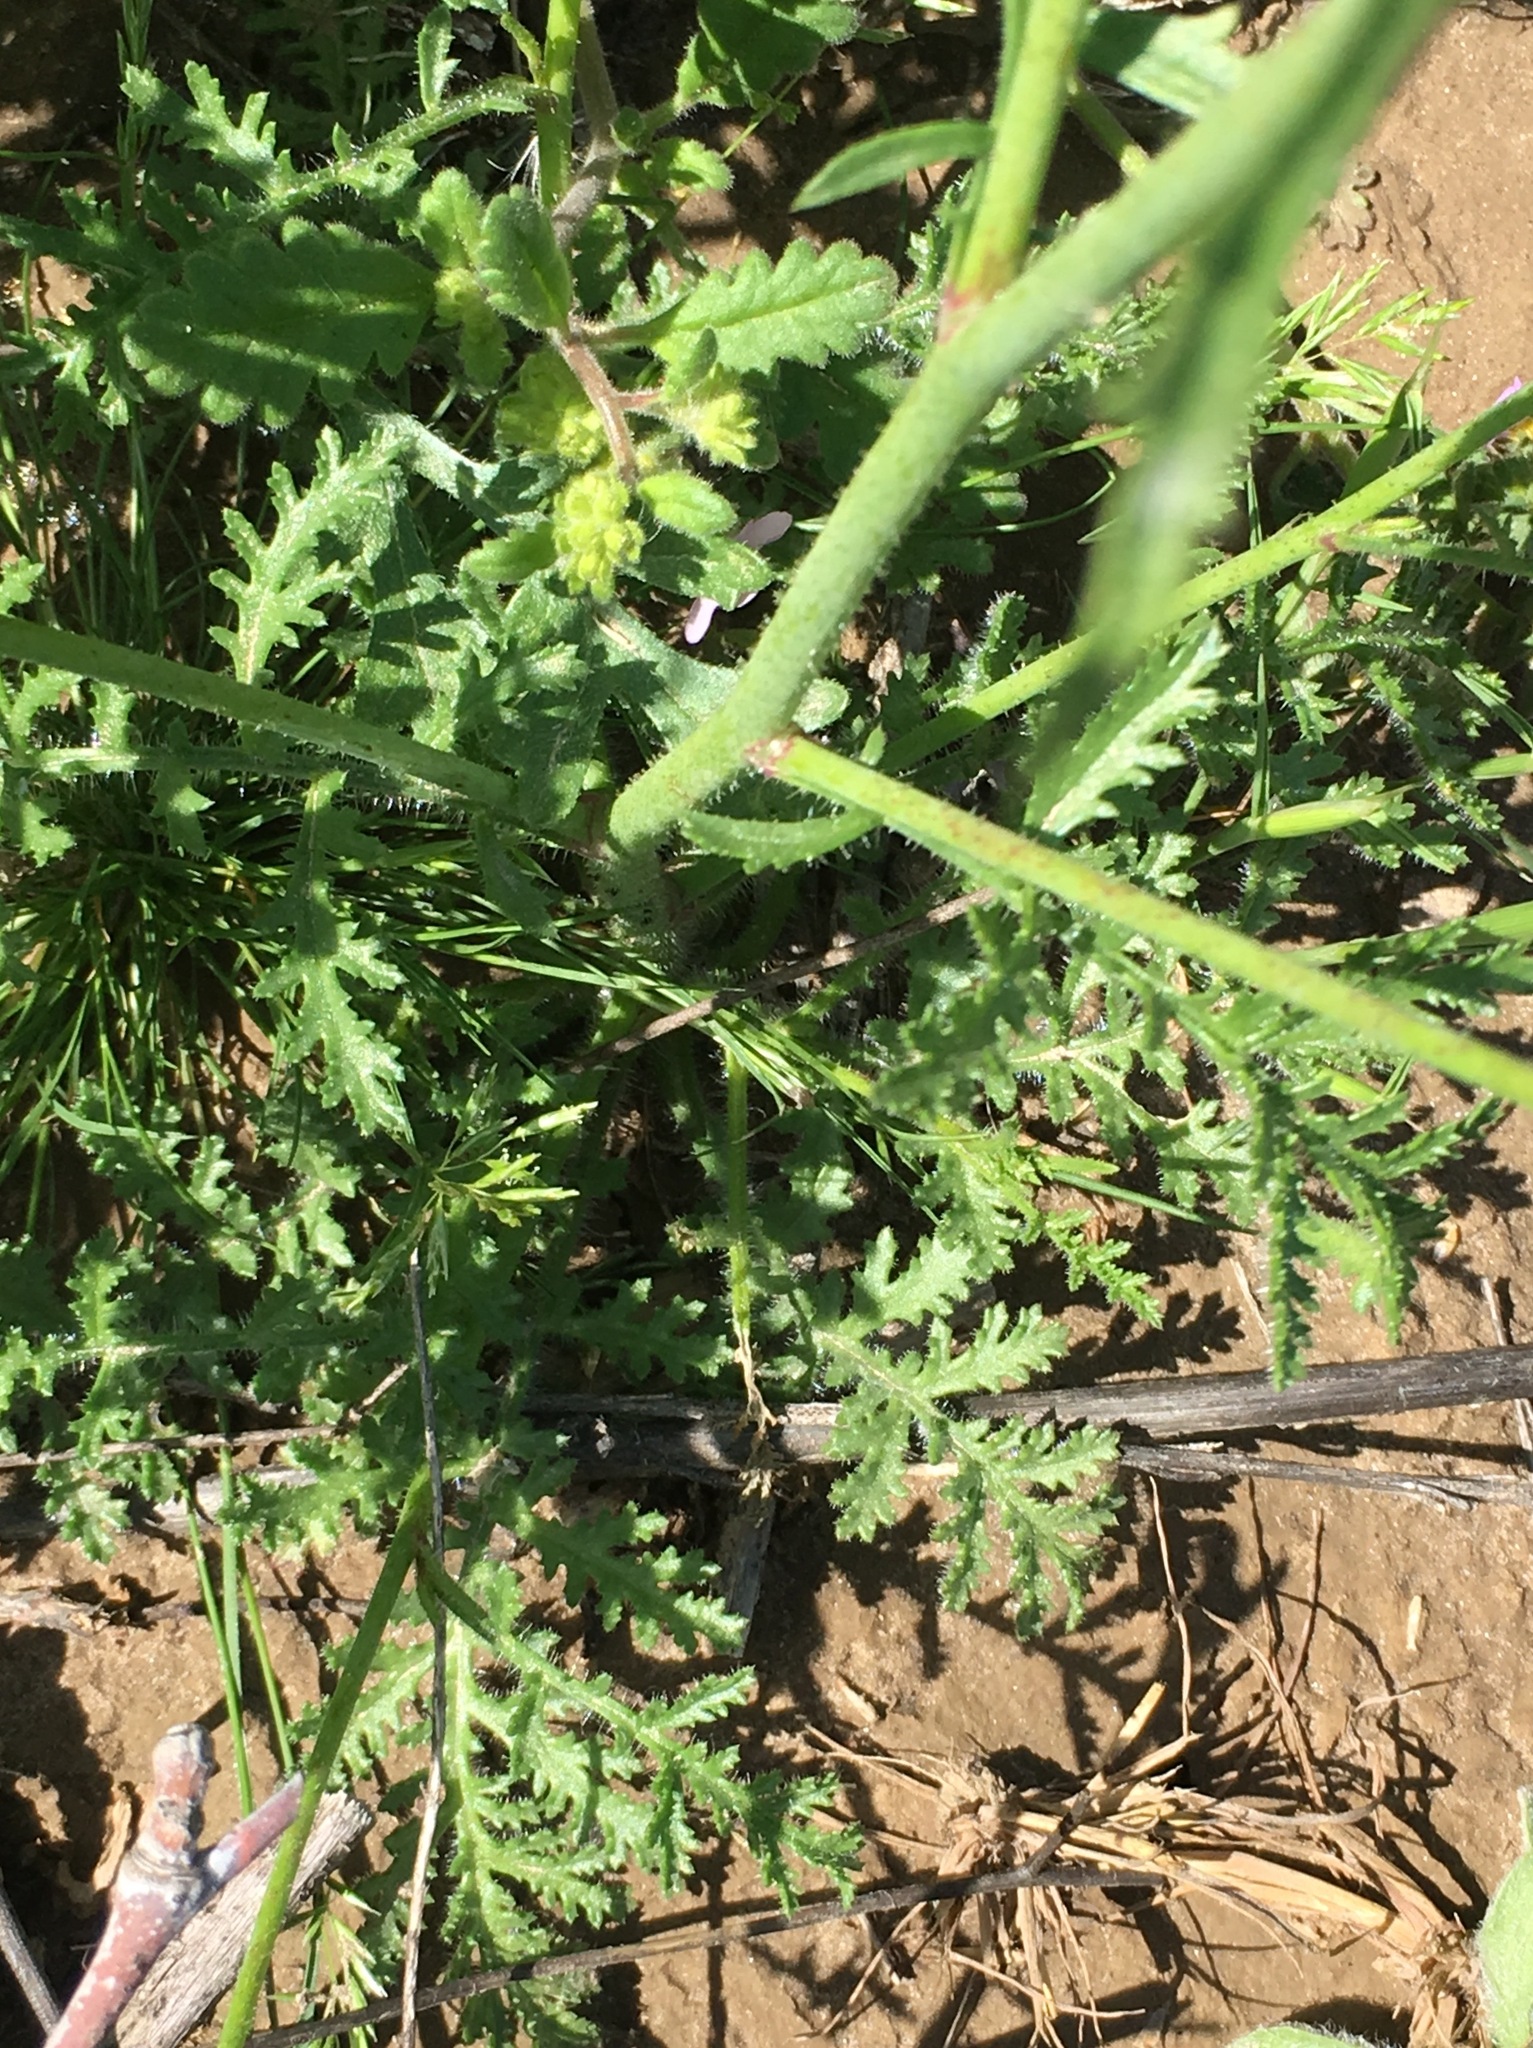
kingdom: Plantae
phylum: Tracheophyta
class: Magnoliopsida
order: Boraginales
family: Hydrophyllaceae
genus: Phacelia
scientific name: Phacelia cicutaria
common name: Caterpillar phacelia
